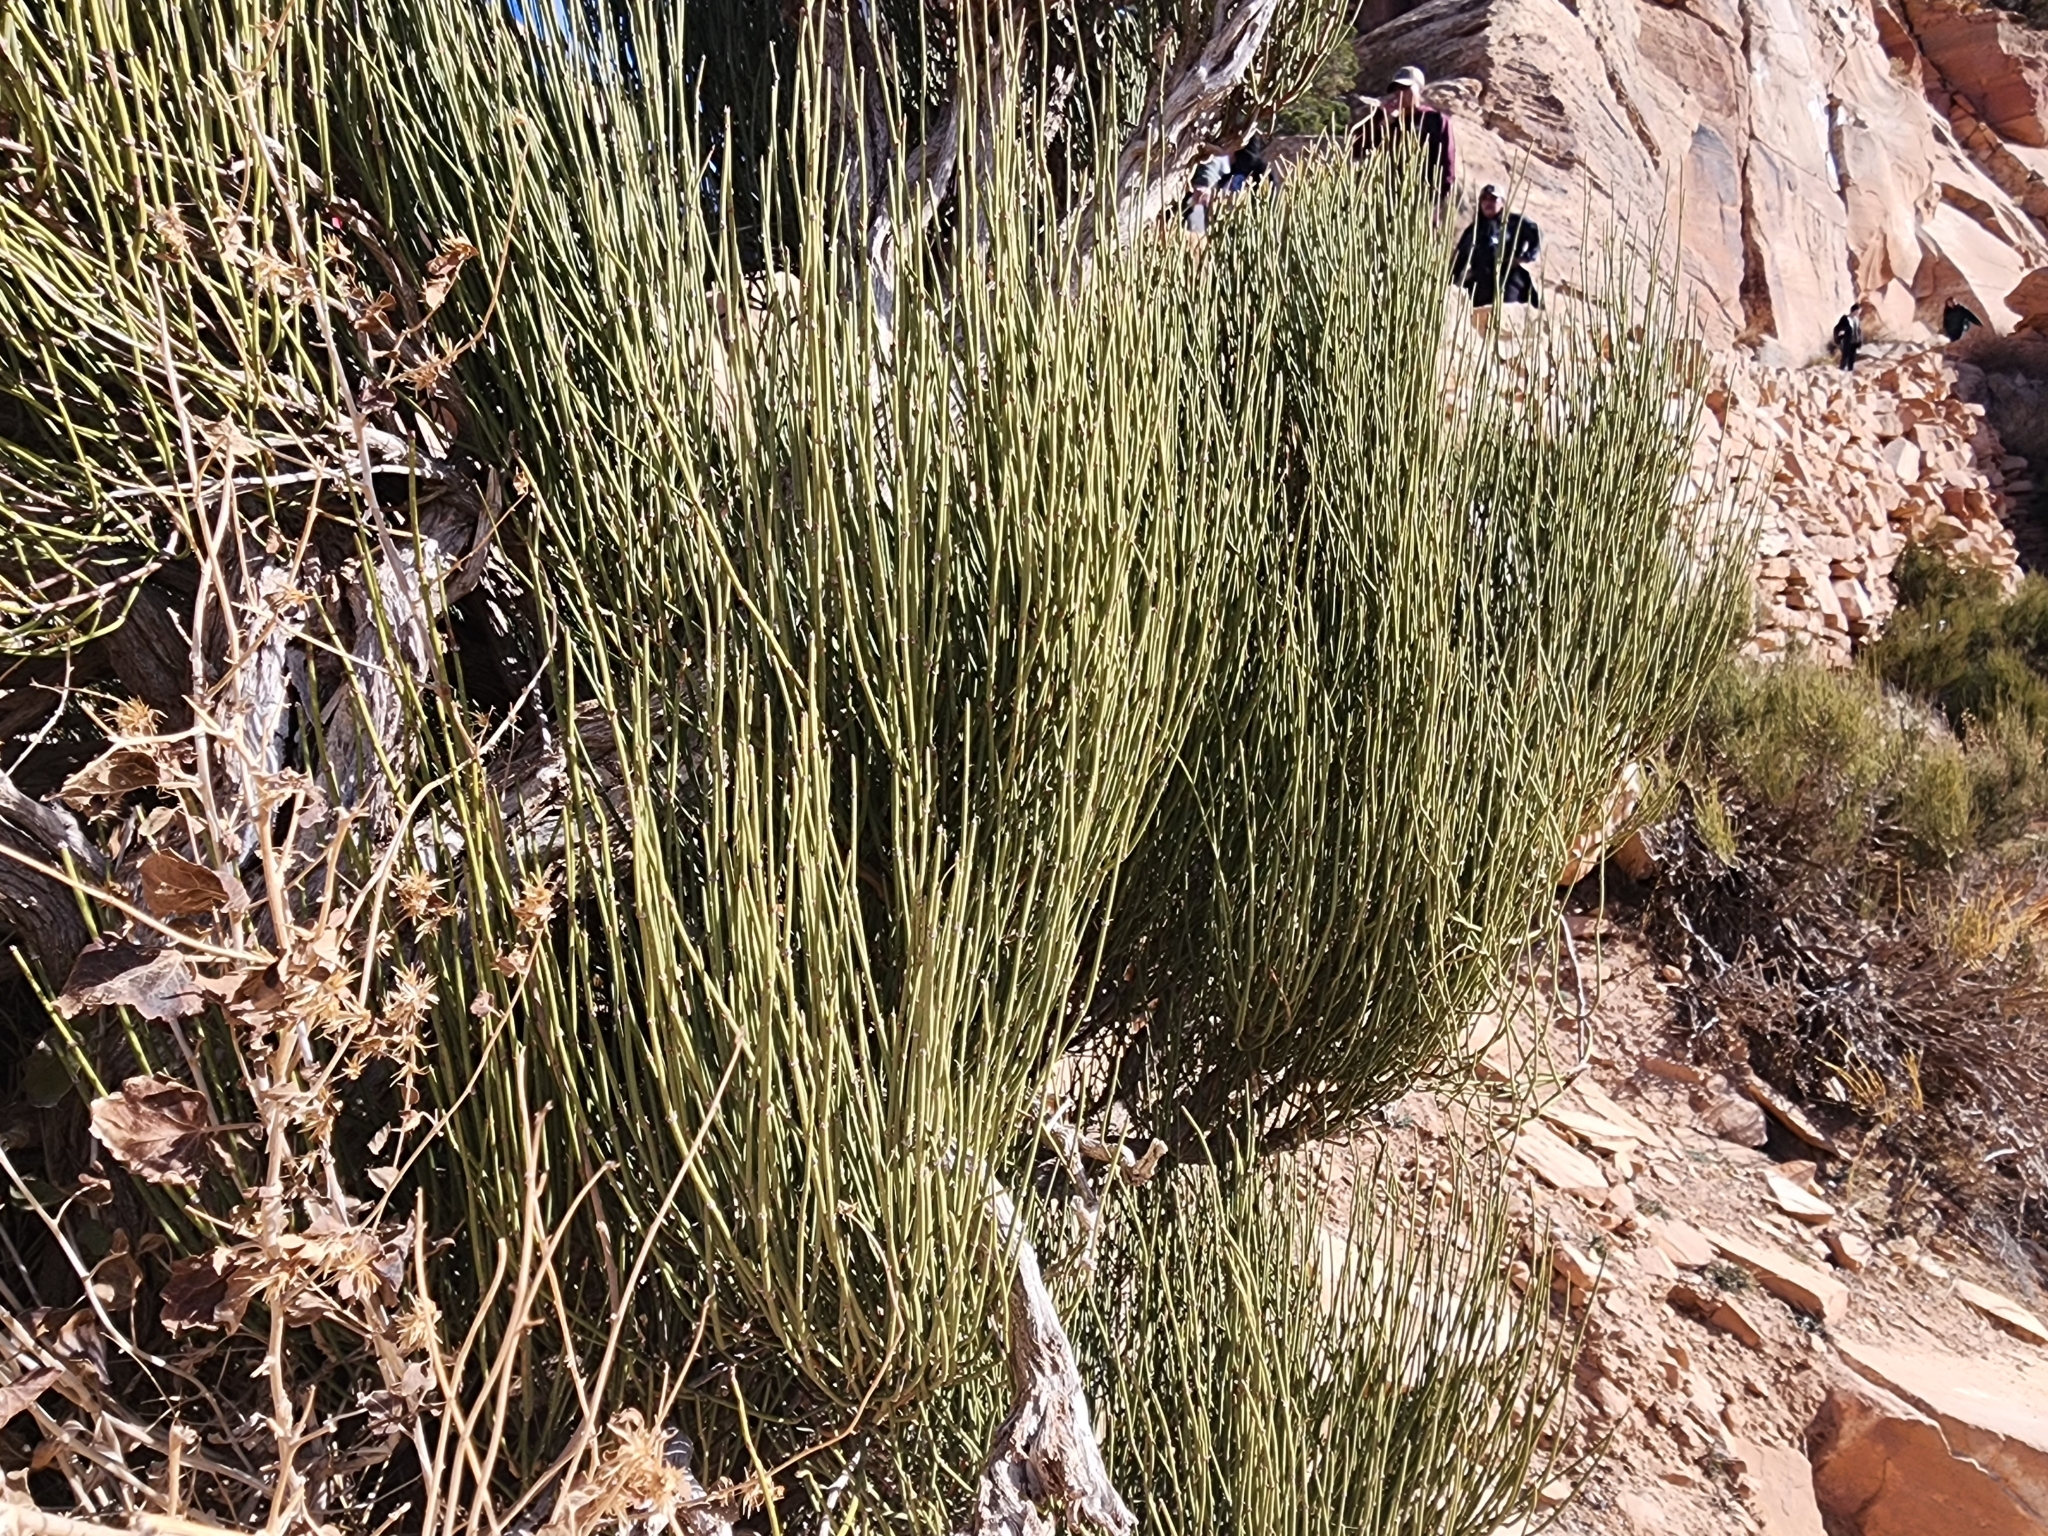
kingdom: Plantae
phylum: Tracheophyta
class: Gnetopsida
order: Ephedrales
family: Ephedraceae
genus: Ephedra
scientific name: Ephedra viridis
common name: Green ephedra
